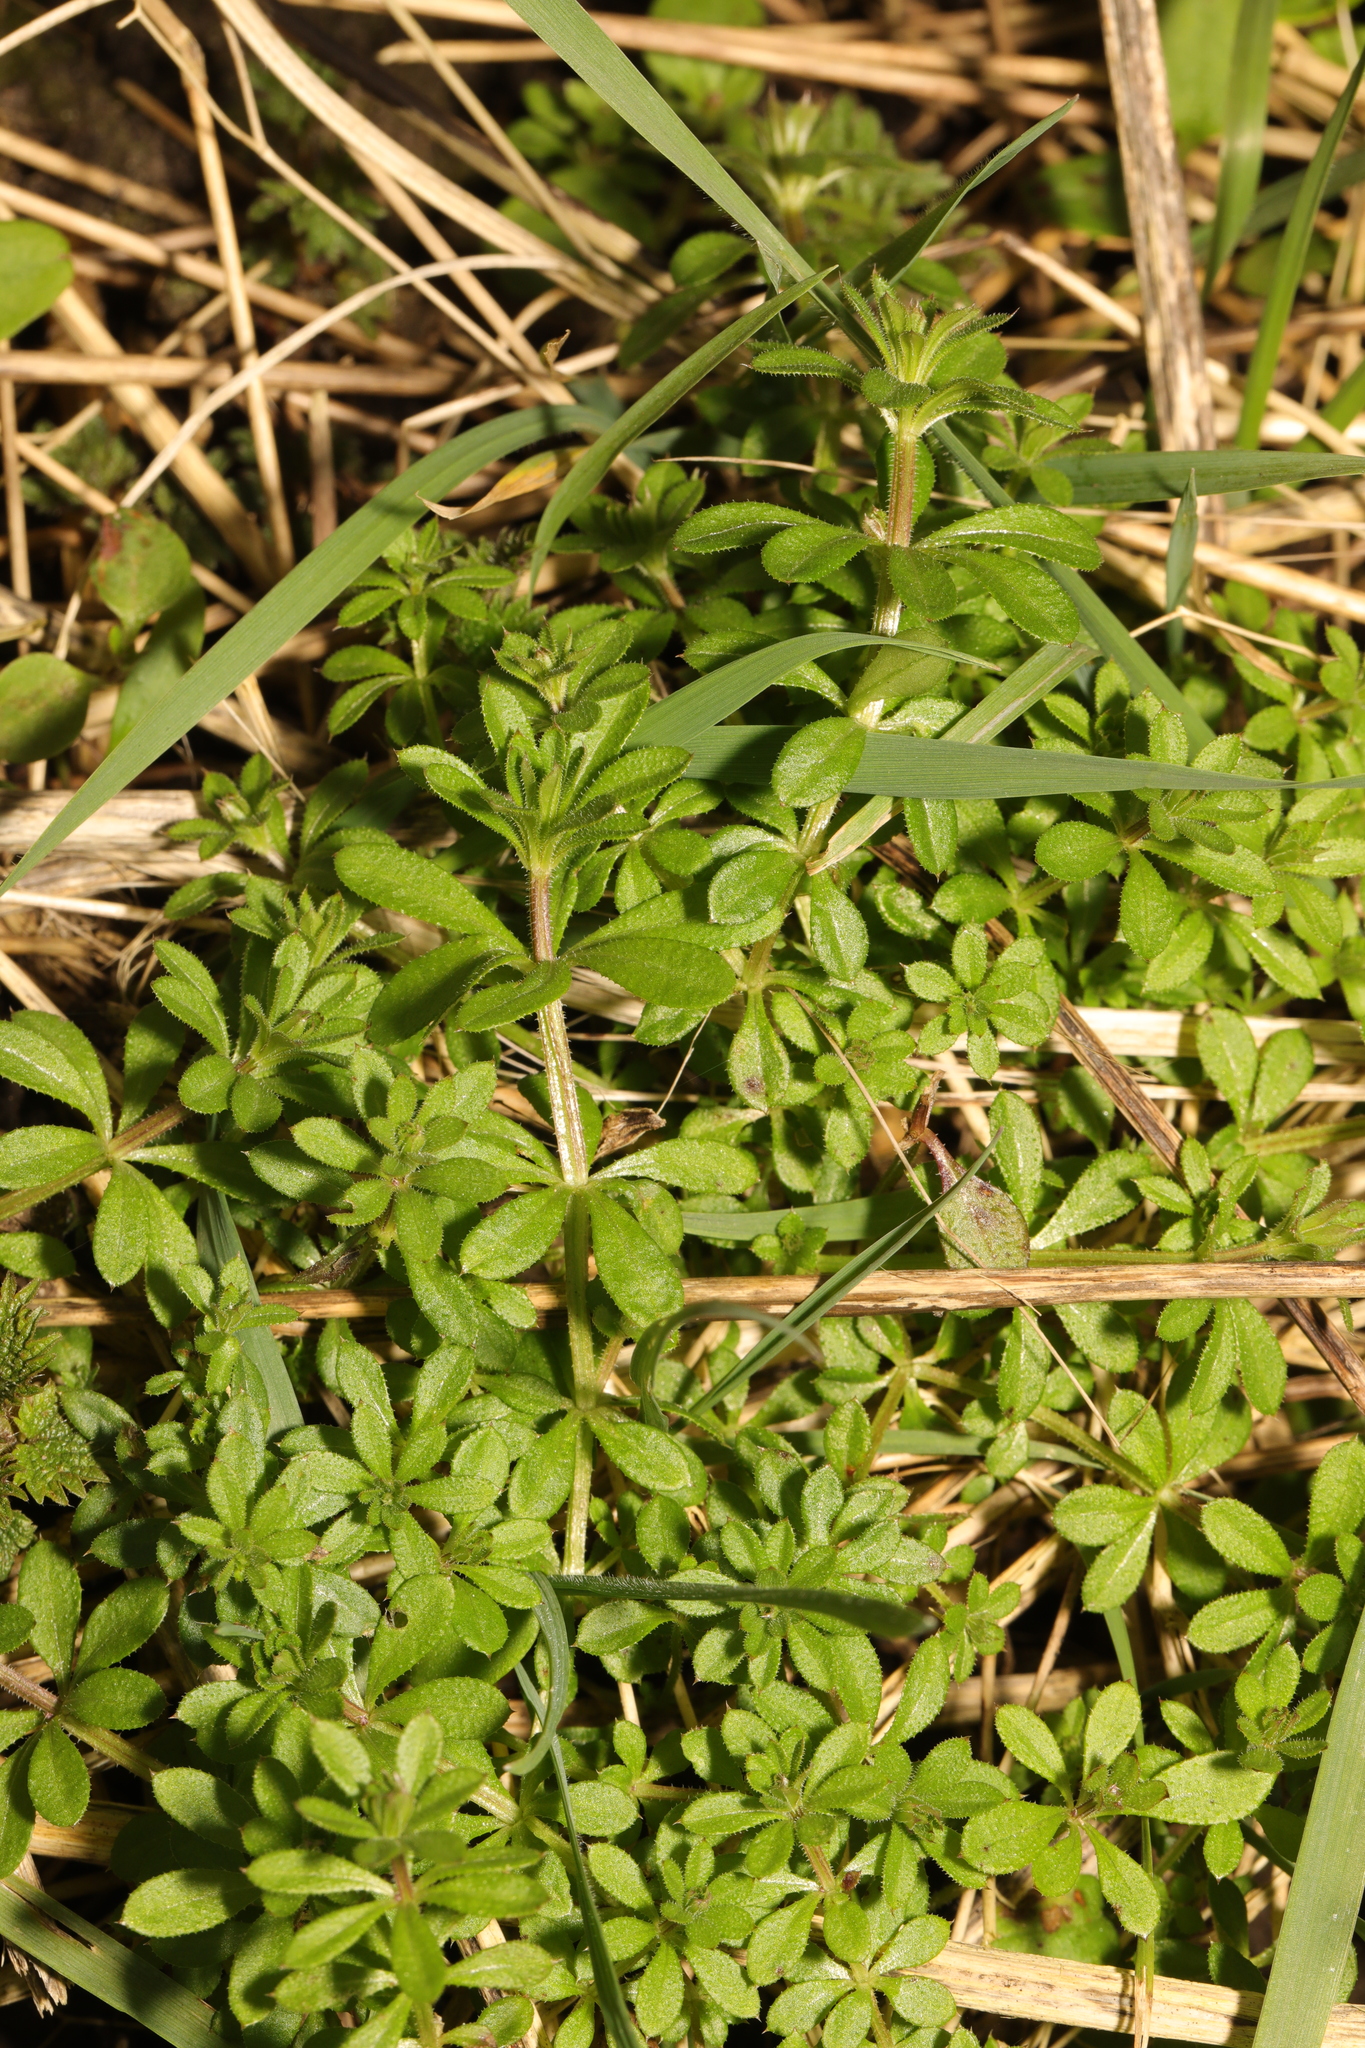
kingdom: Plantae
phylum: Tracheophyta
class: Magnoliopsida
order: Gentianales
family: Rubiaceae
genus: Galium
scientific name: Galium aparine
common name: Cleavers
